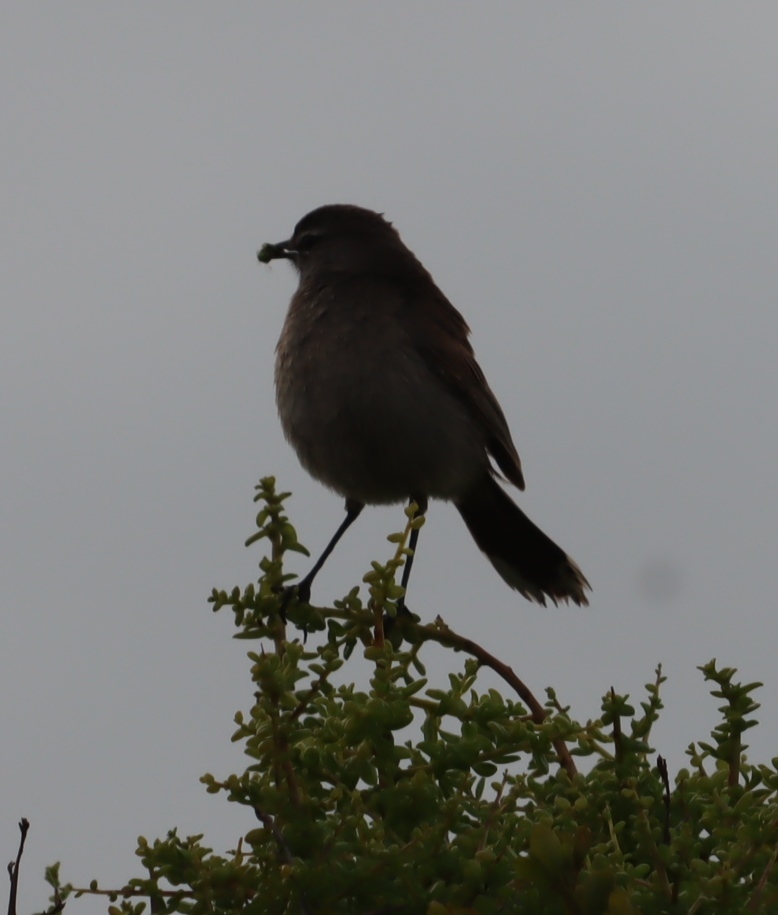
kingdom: Animalia
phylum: Chordata
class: Aves
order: Passeriformes
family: Muscicapidae
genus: Erythropygia
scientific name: Erythropygia coryphoeus
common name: Karoo scrub robin
